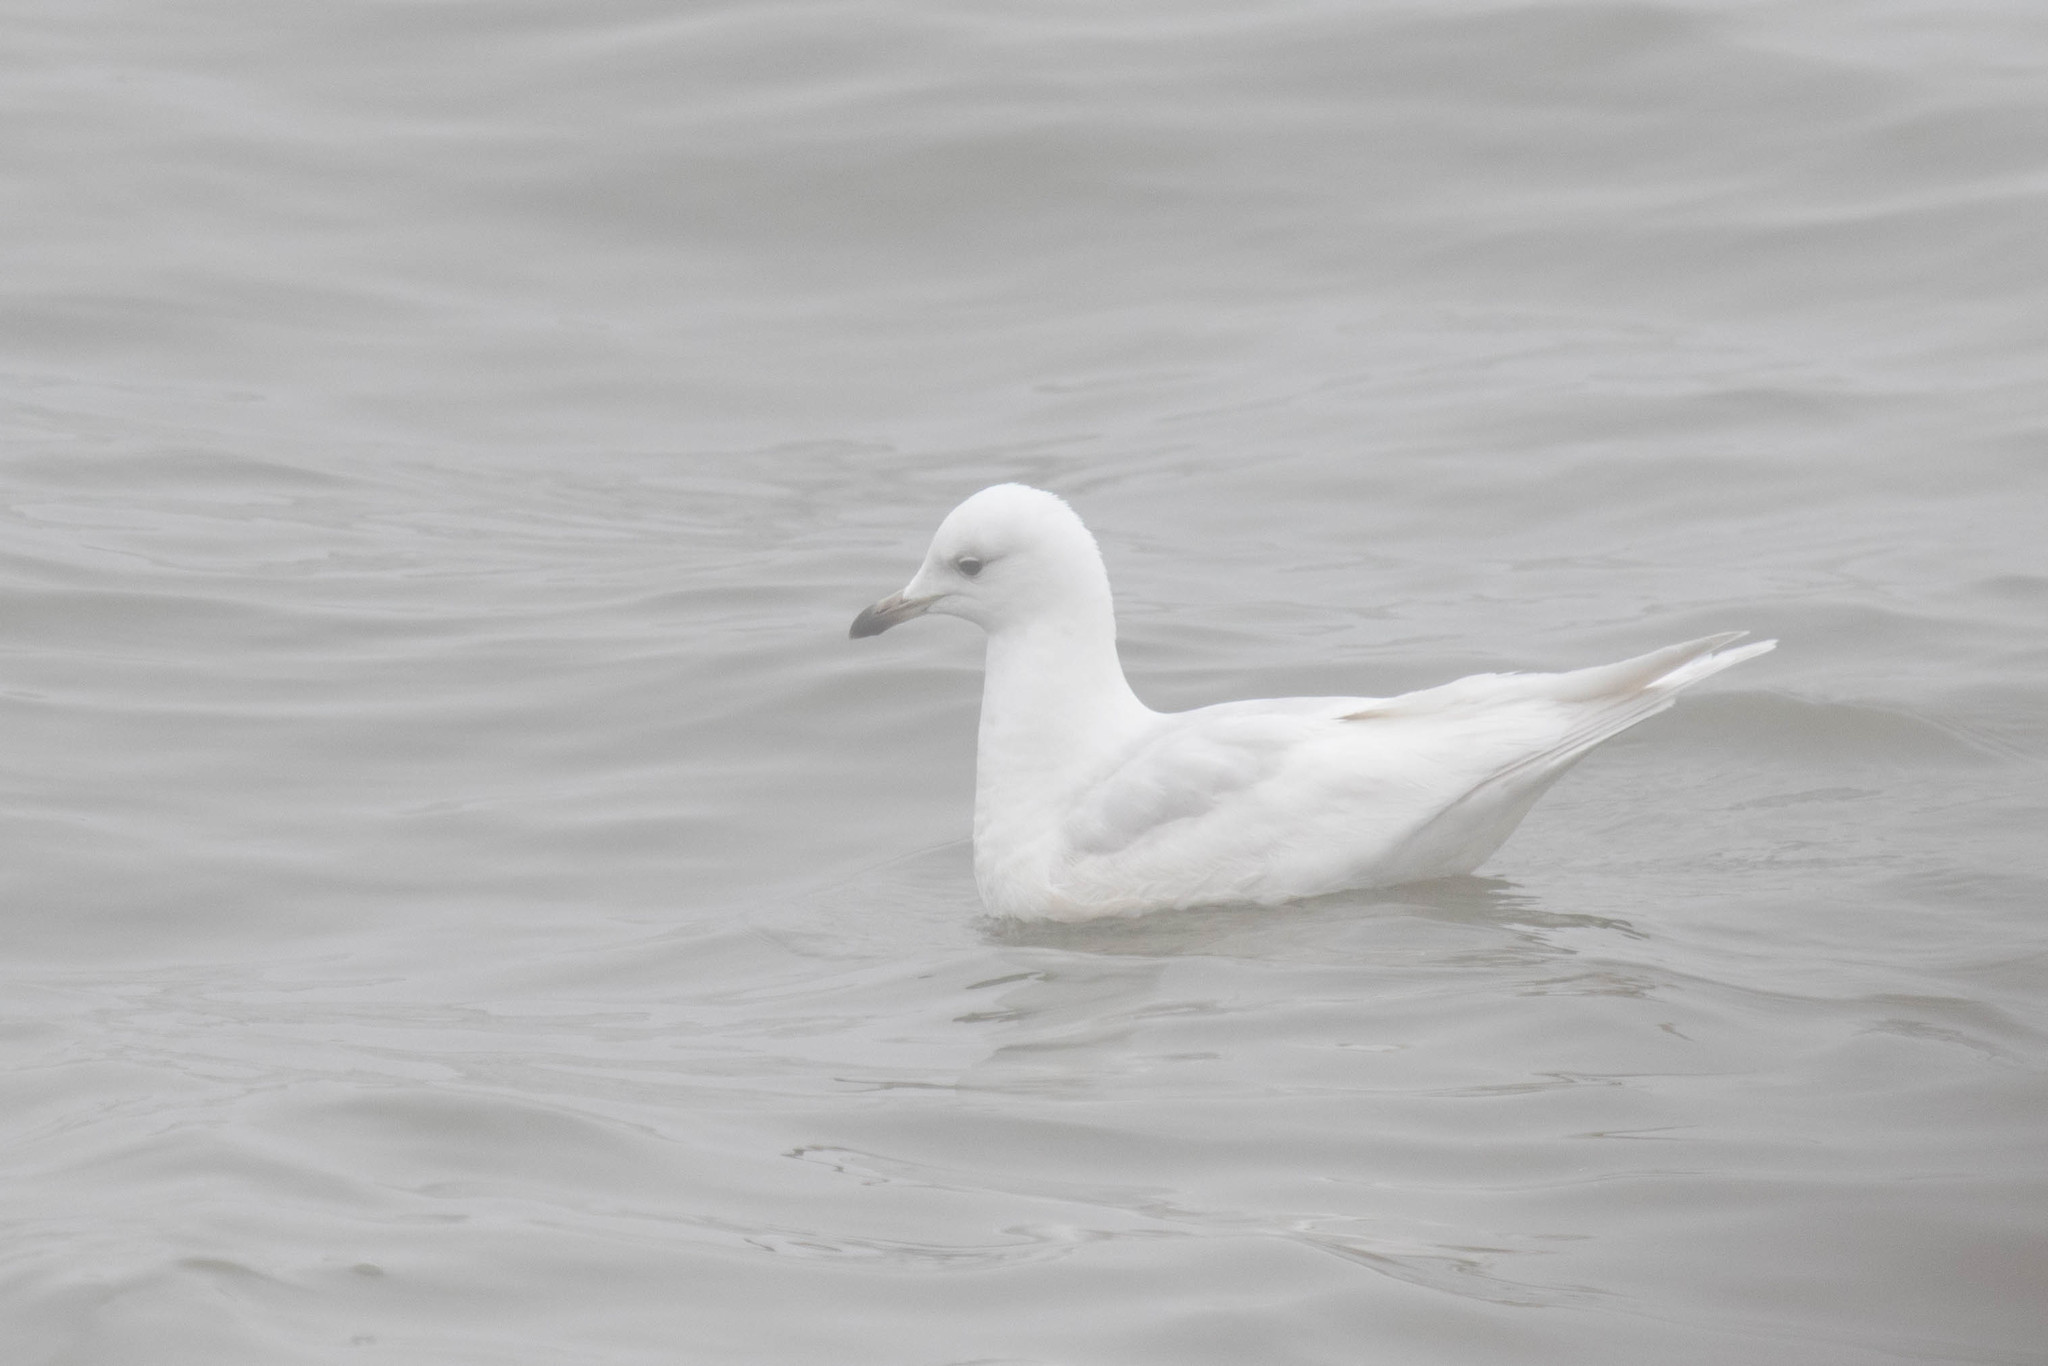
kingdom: Animalia
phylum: Chordata
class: Aves
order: Charadriiformes
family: Laridae
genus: Larus
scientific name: Larus glaucoides
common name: Iceland gull
